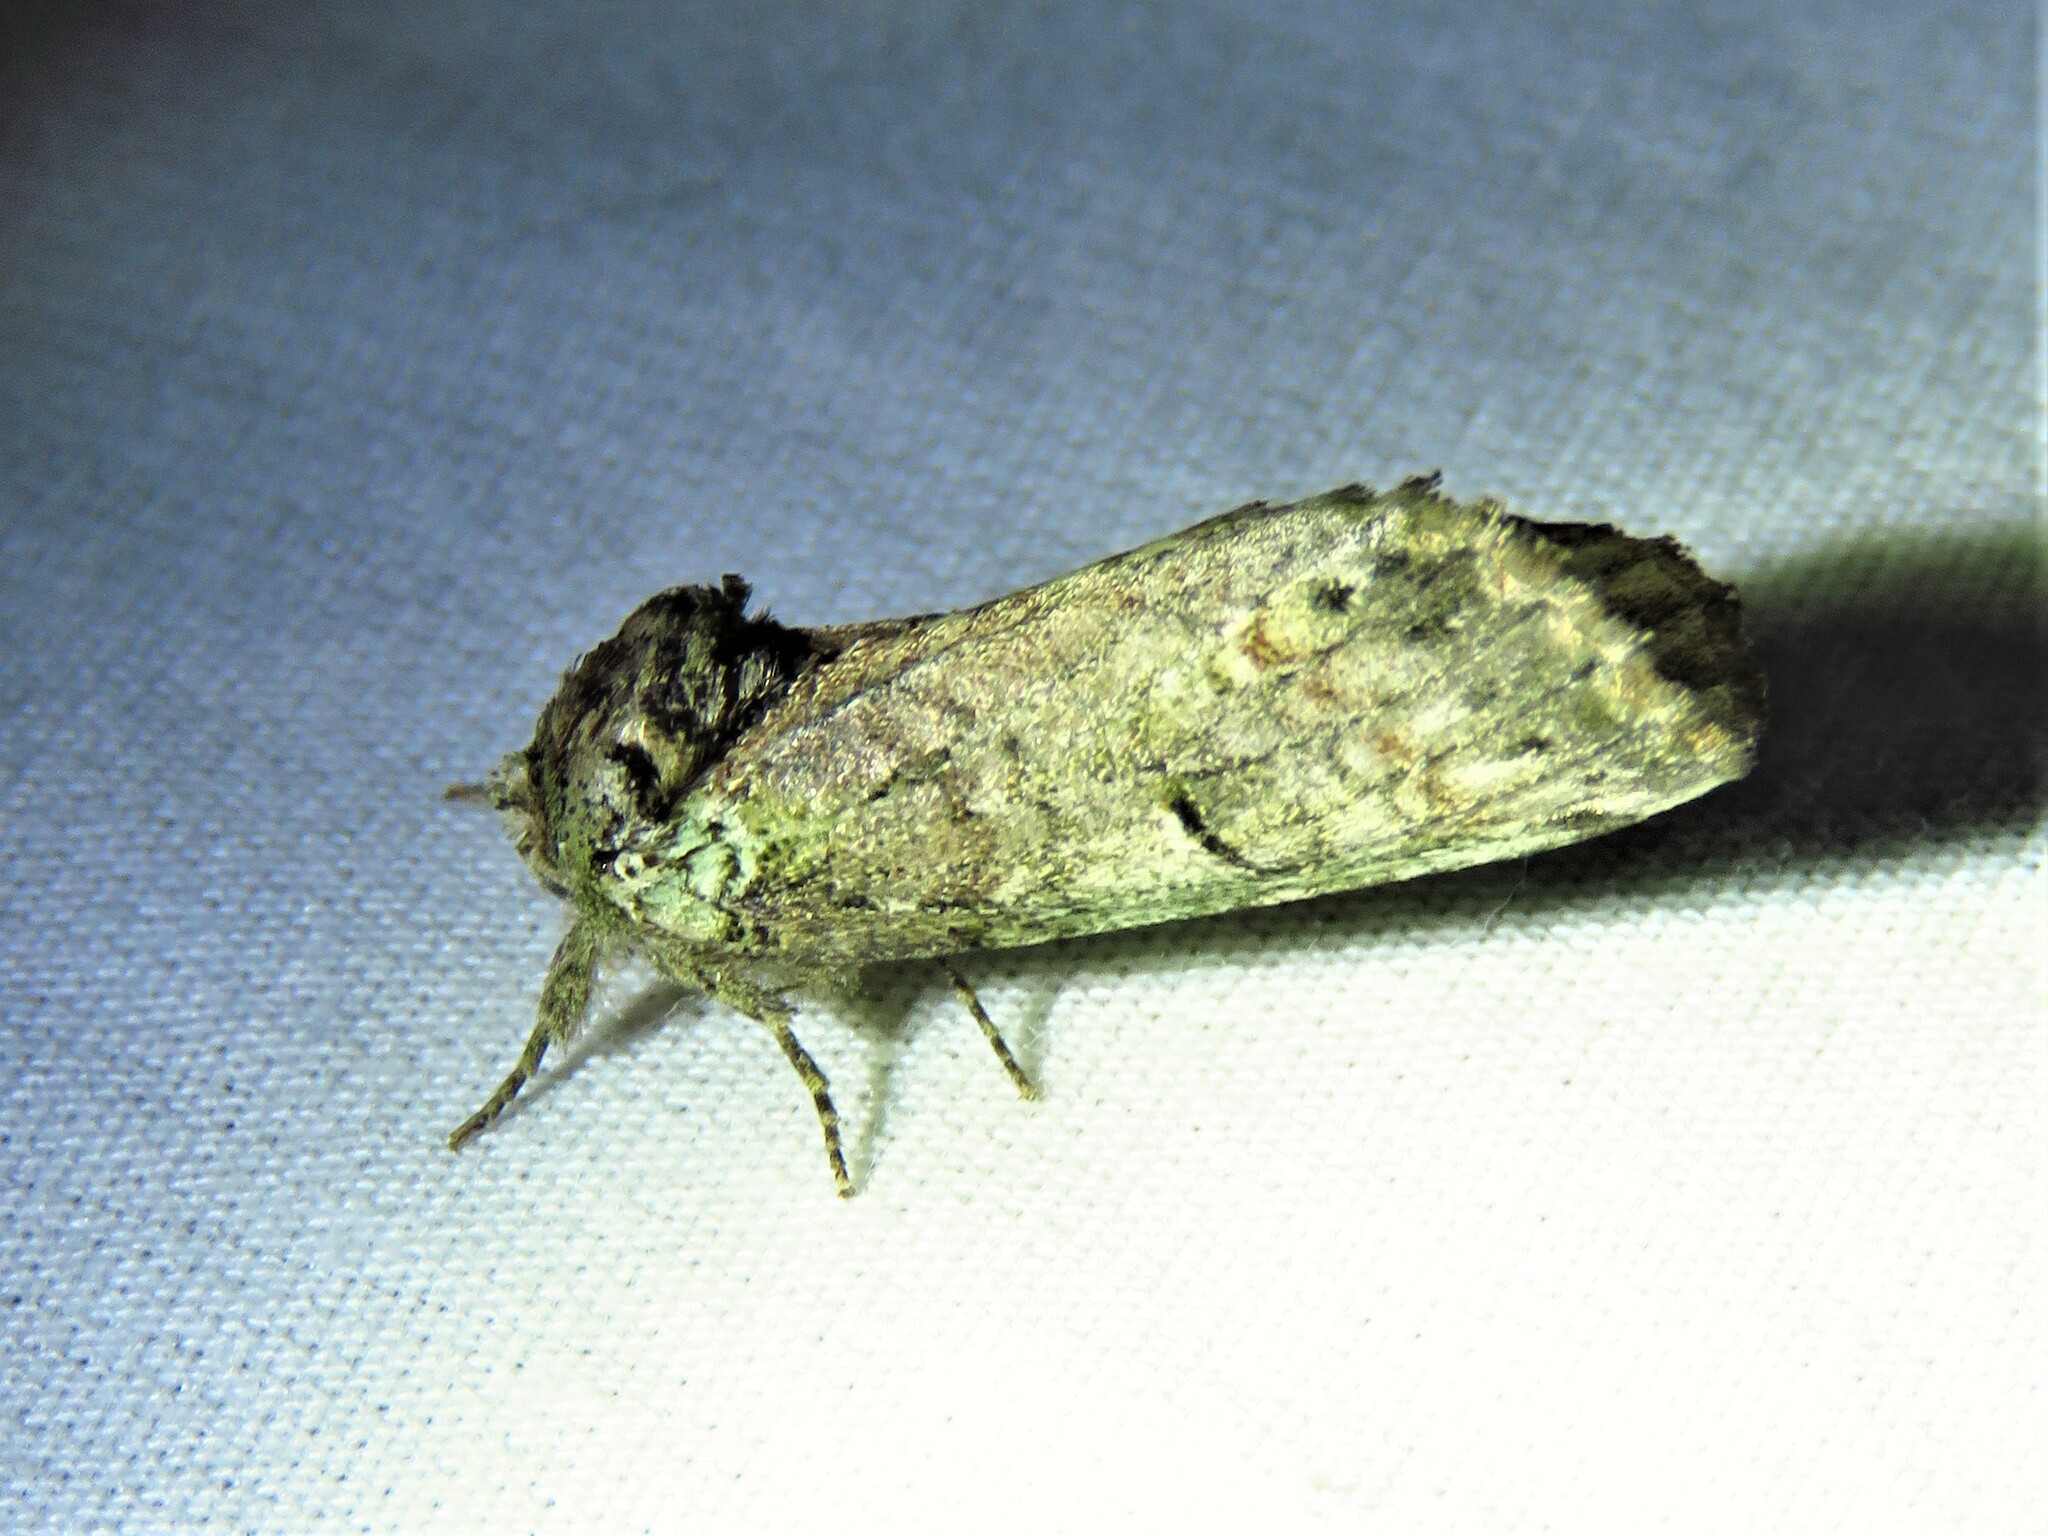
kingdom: Animalia
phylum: Arthropoda
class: Insecta
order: Lepidoptera
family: Notodontidae
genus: Schizura
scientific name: Schizura
